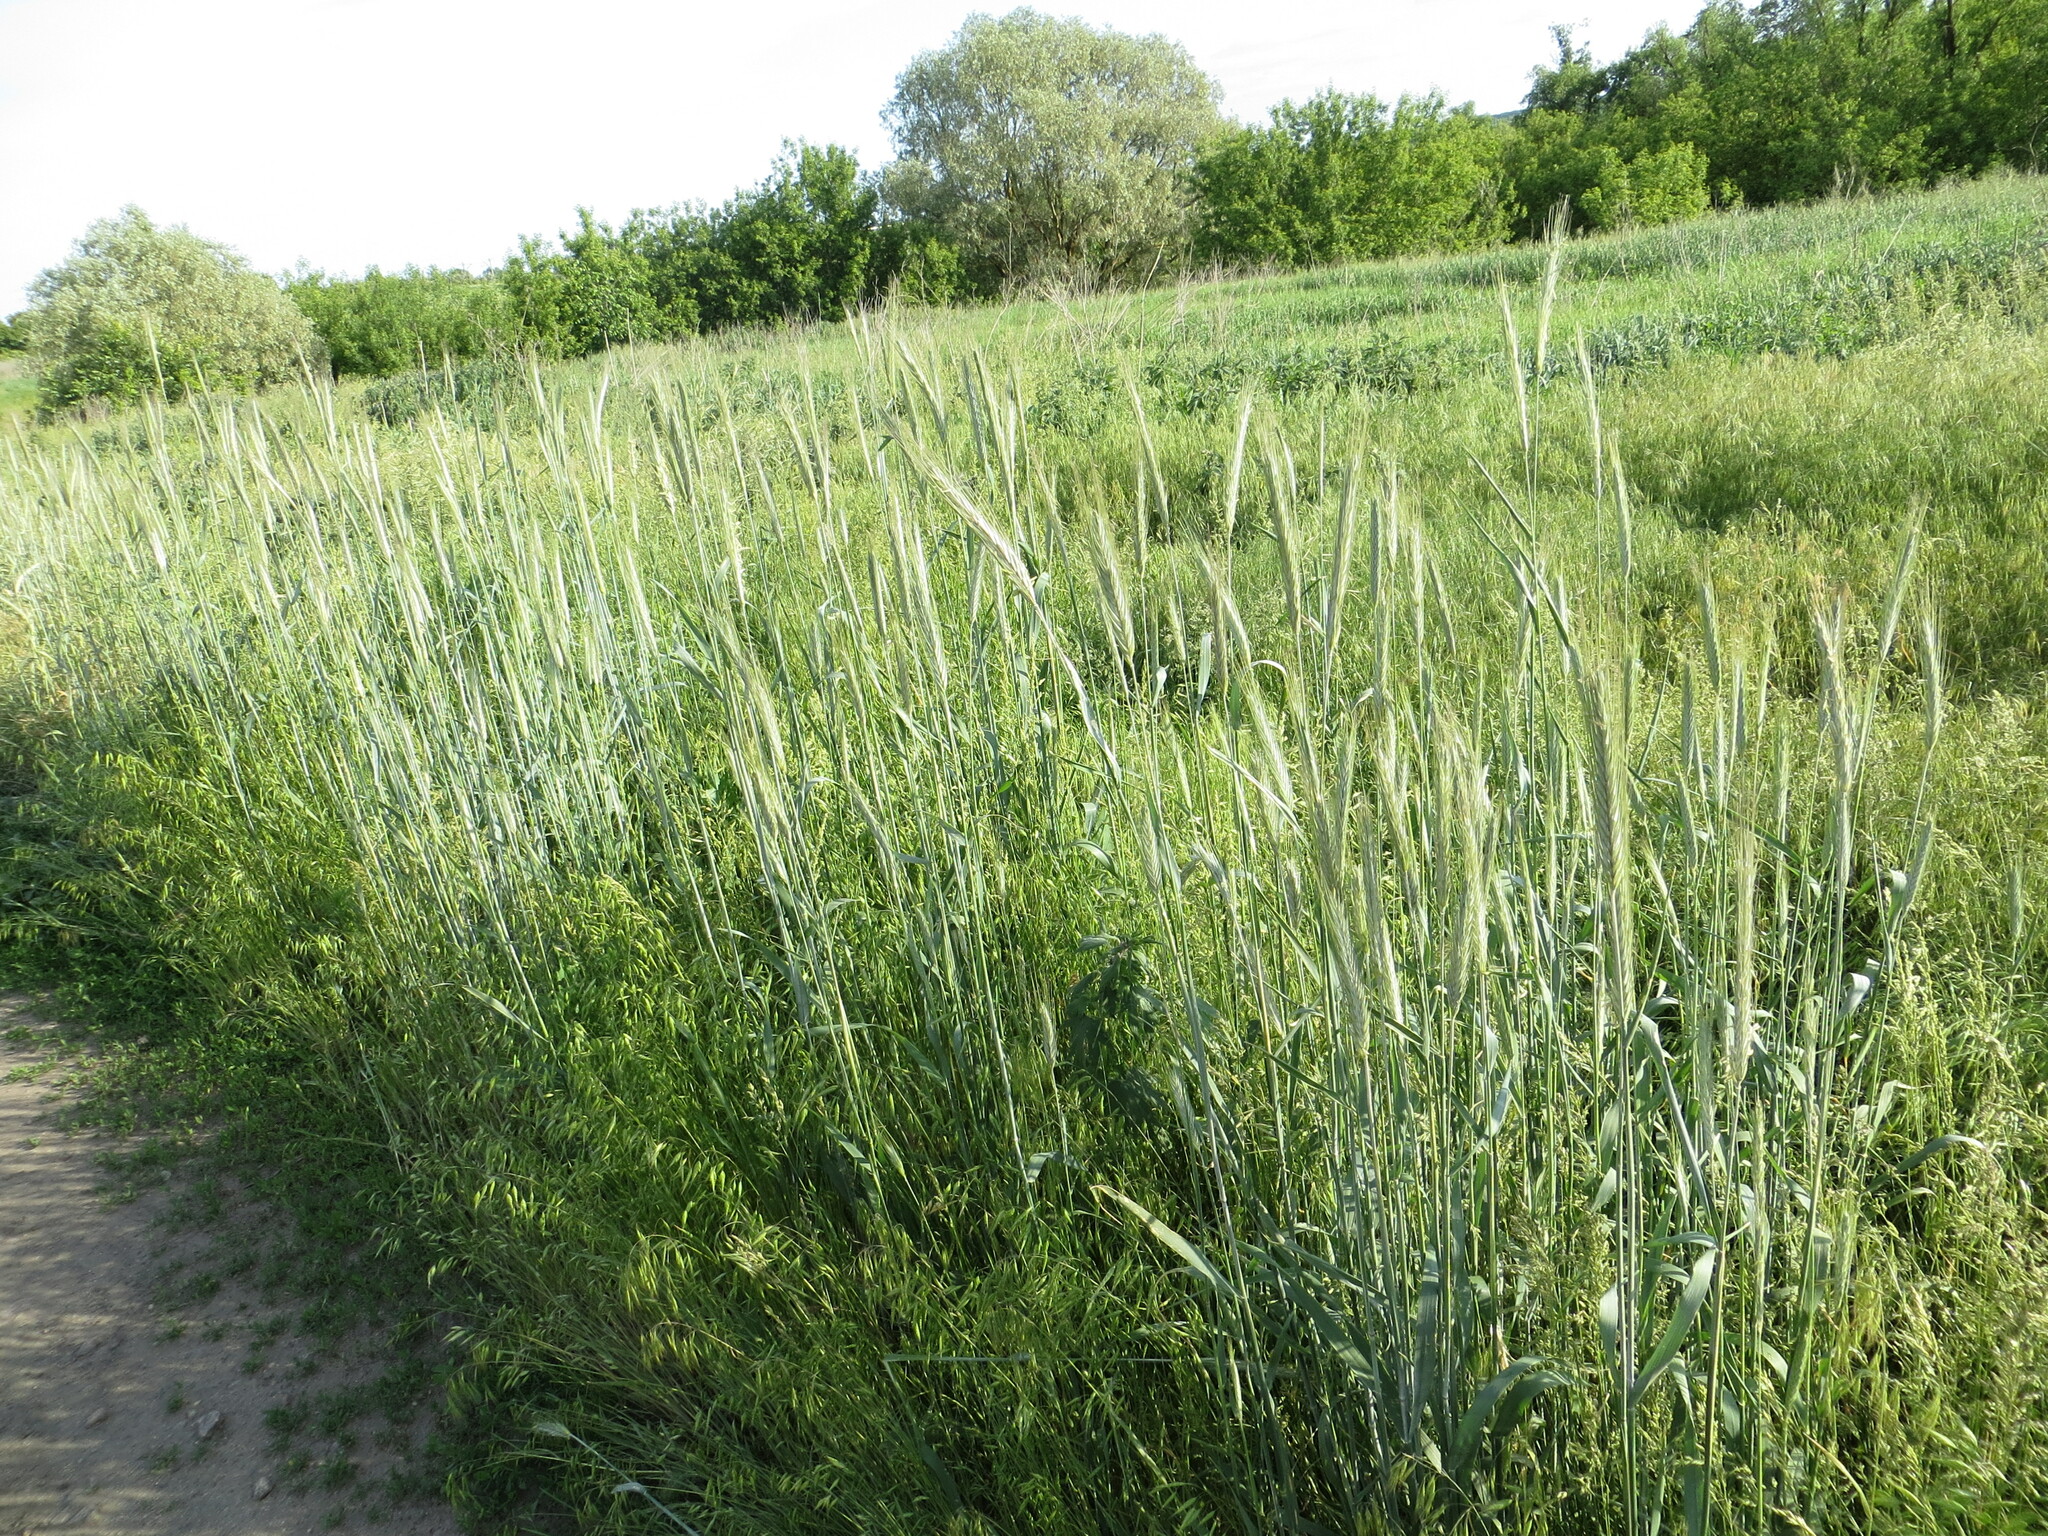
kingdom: Plantae
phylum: Tracheophyta
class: Liliopsida
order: Poales
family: Poaceae
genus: Secale
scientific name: Secale cereale
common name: Rye
